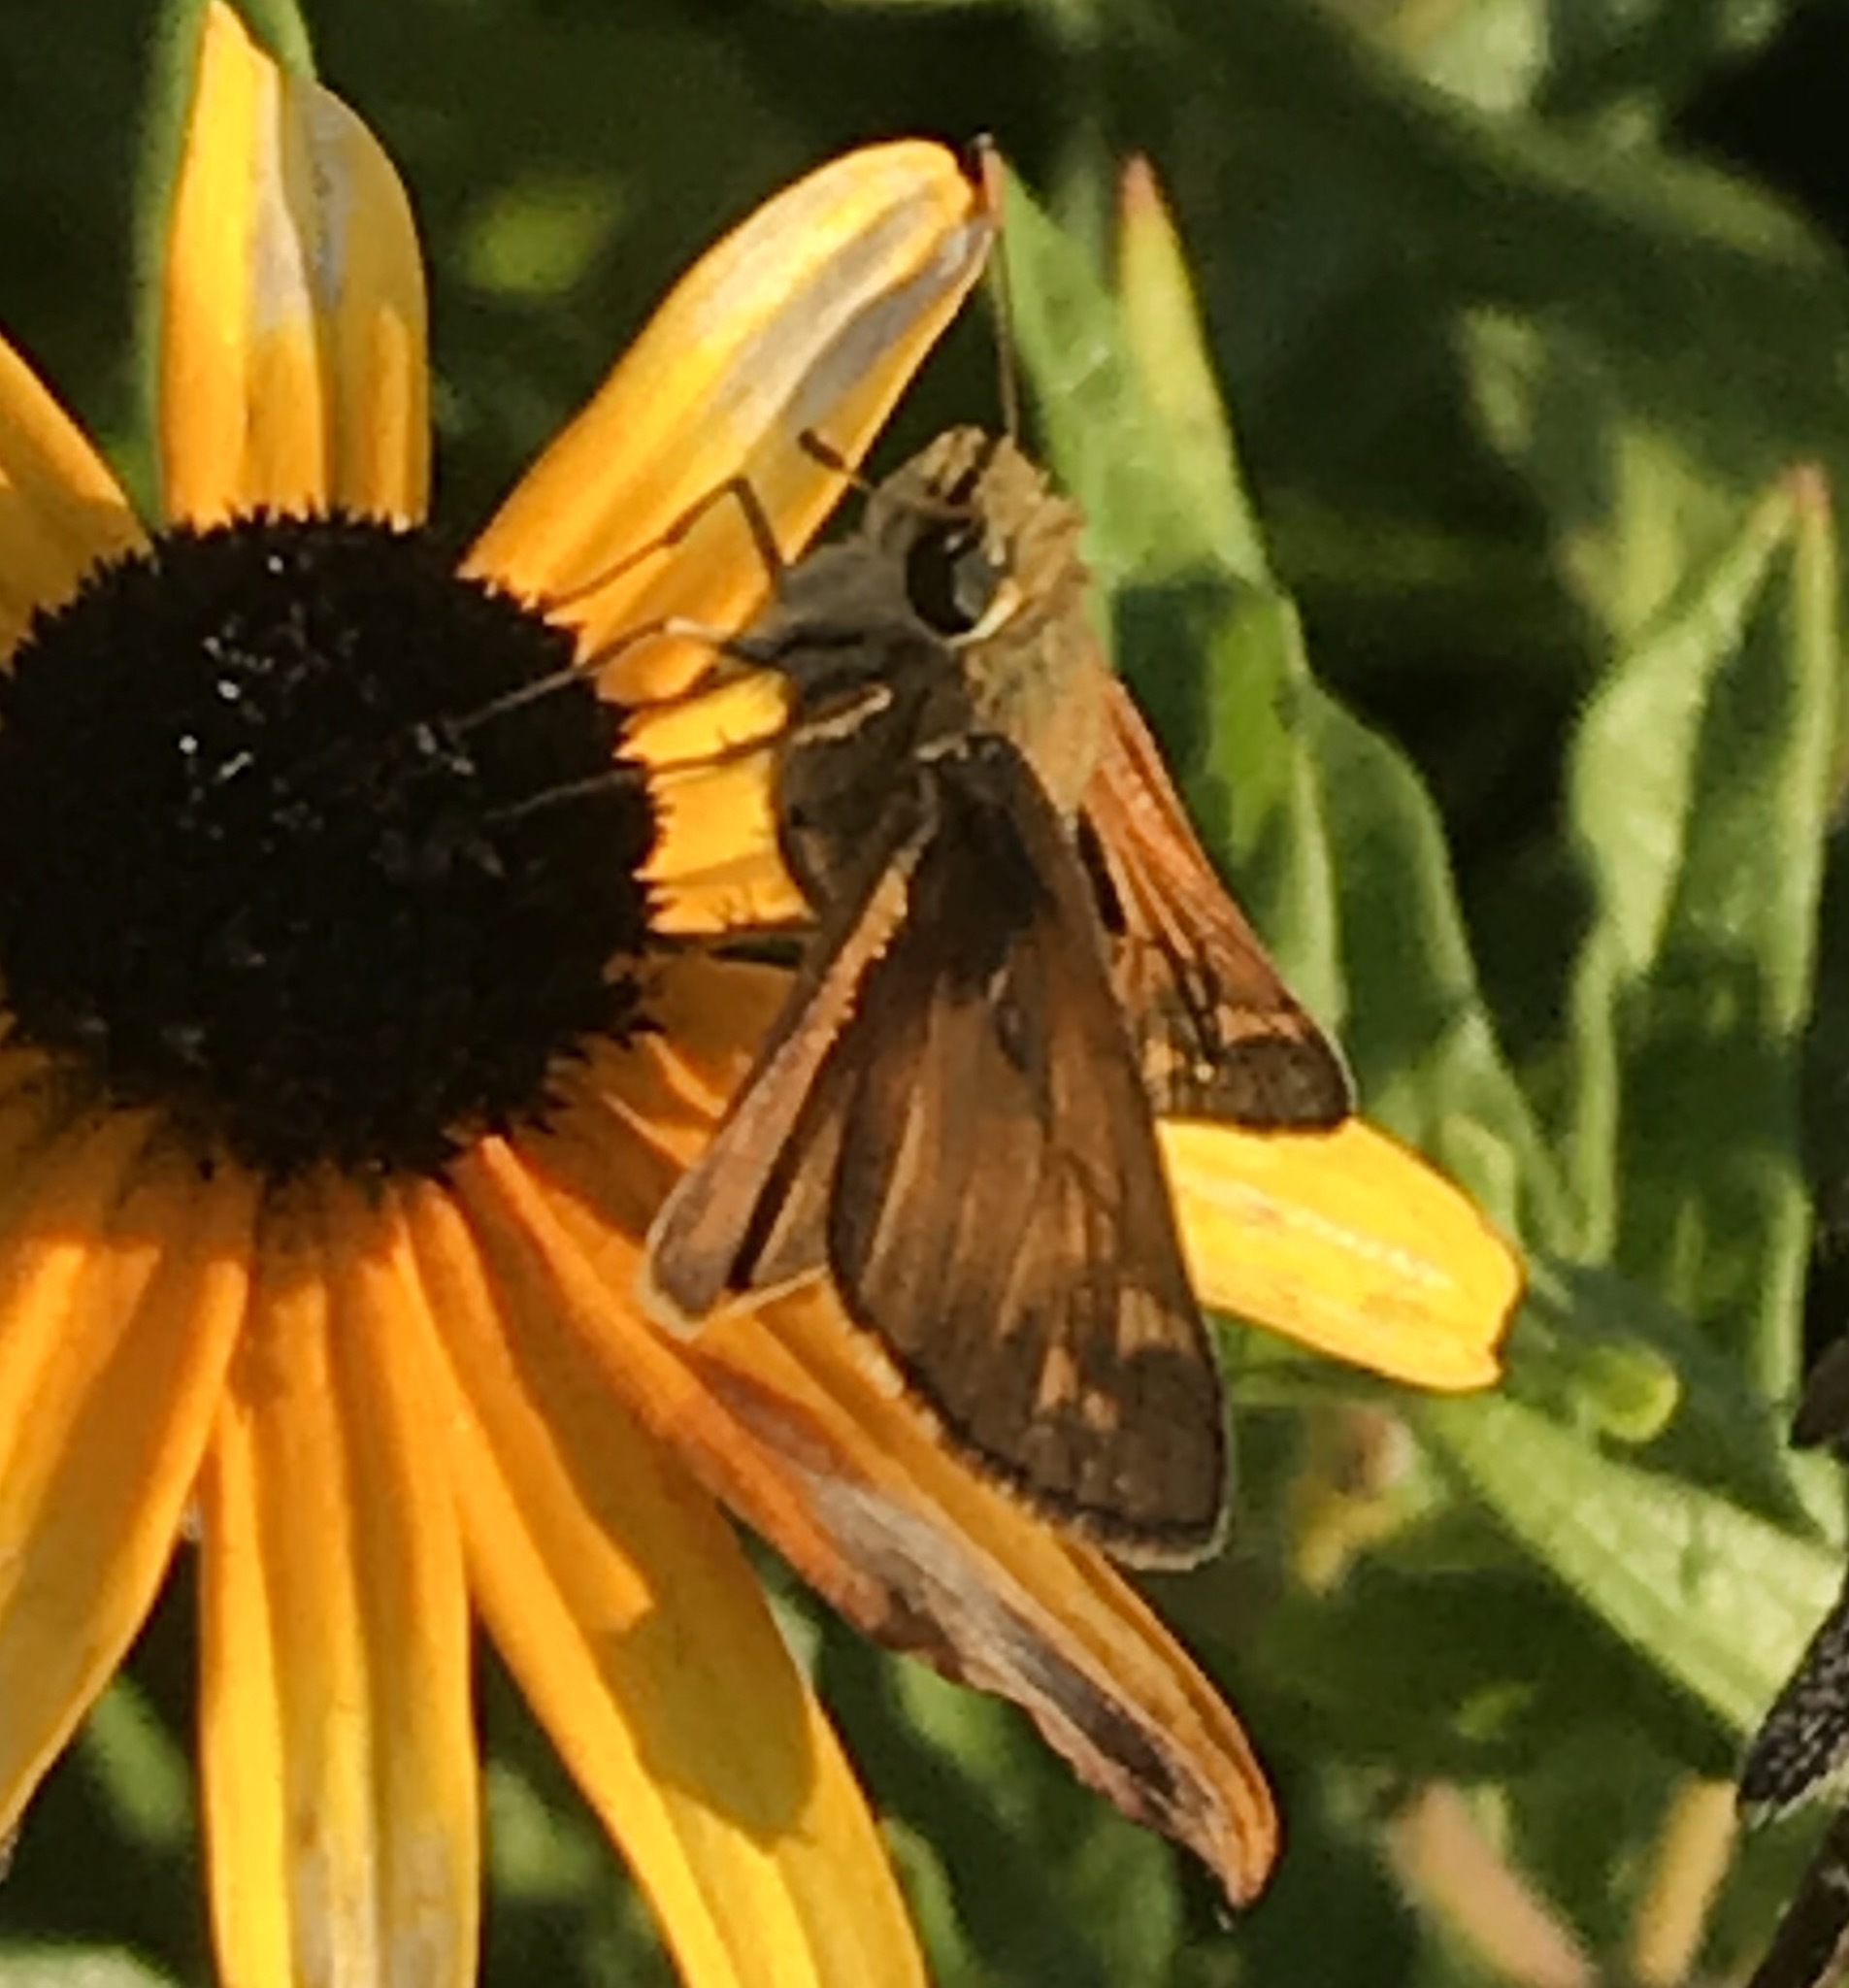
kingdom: Animalia
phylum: Arthropoda
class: Insecta
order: Lepidoptera
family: Hesperiidae
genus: Atalopedes
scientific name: Atalopedes
